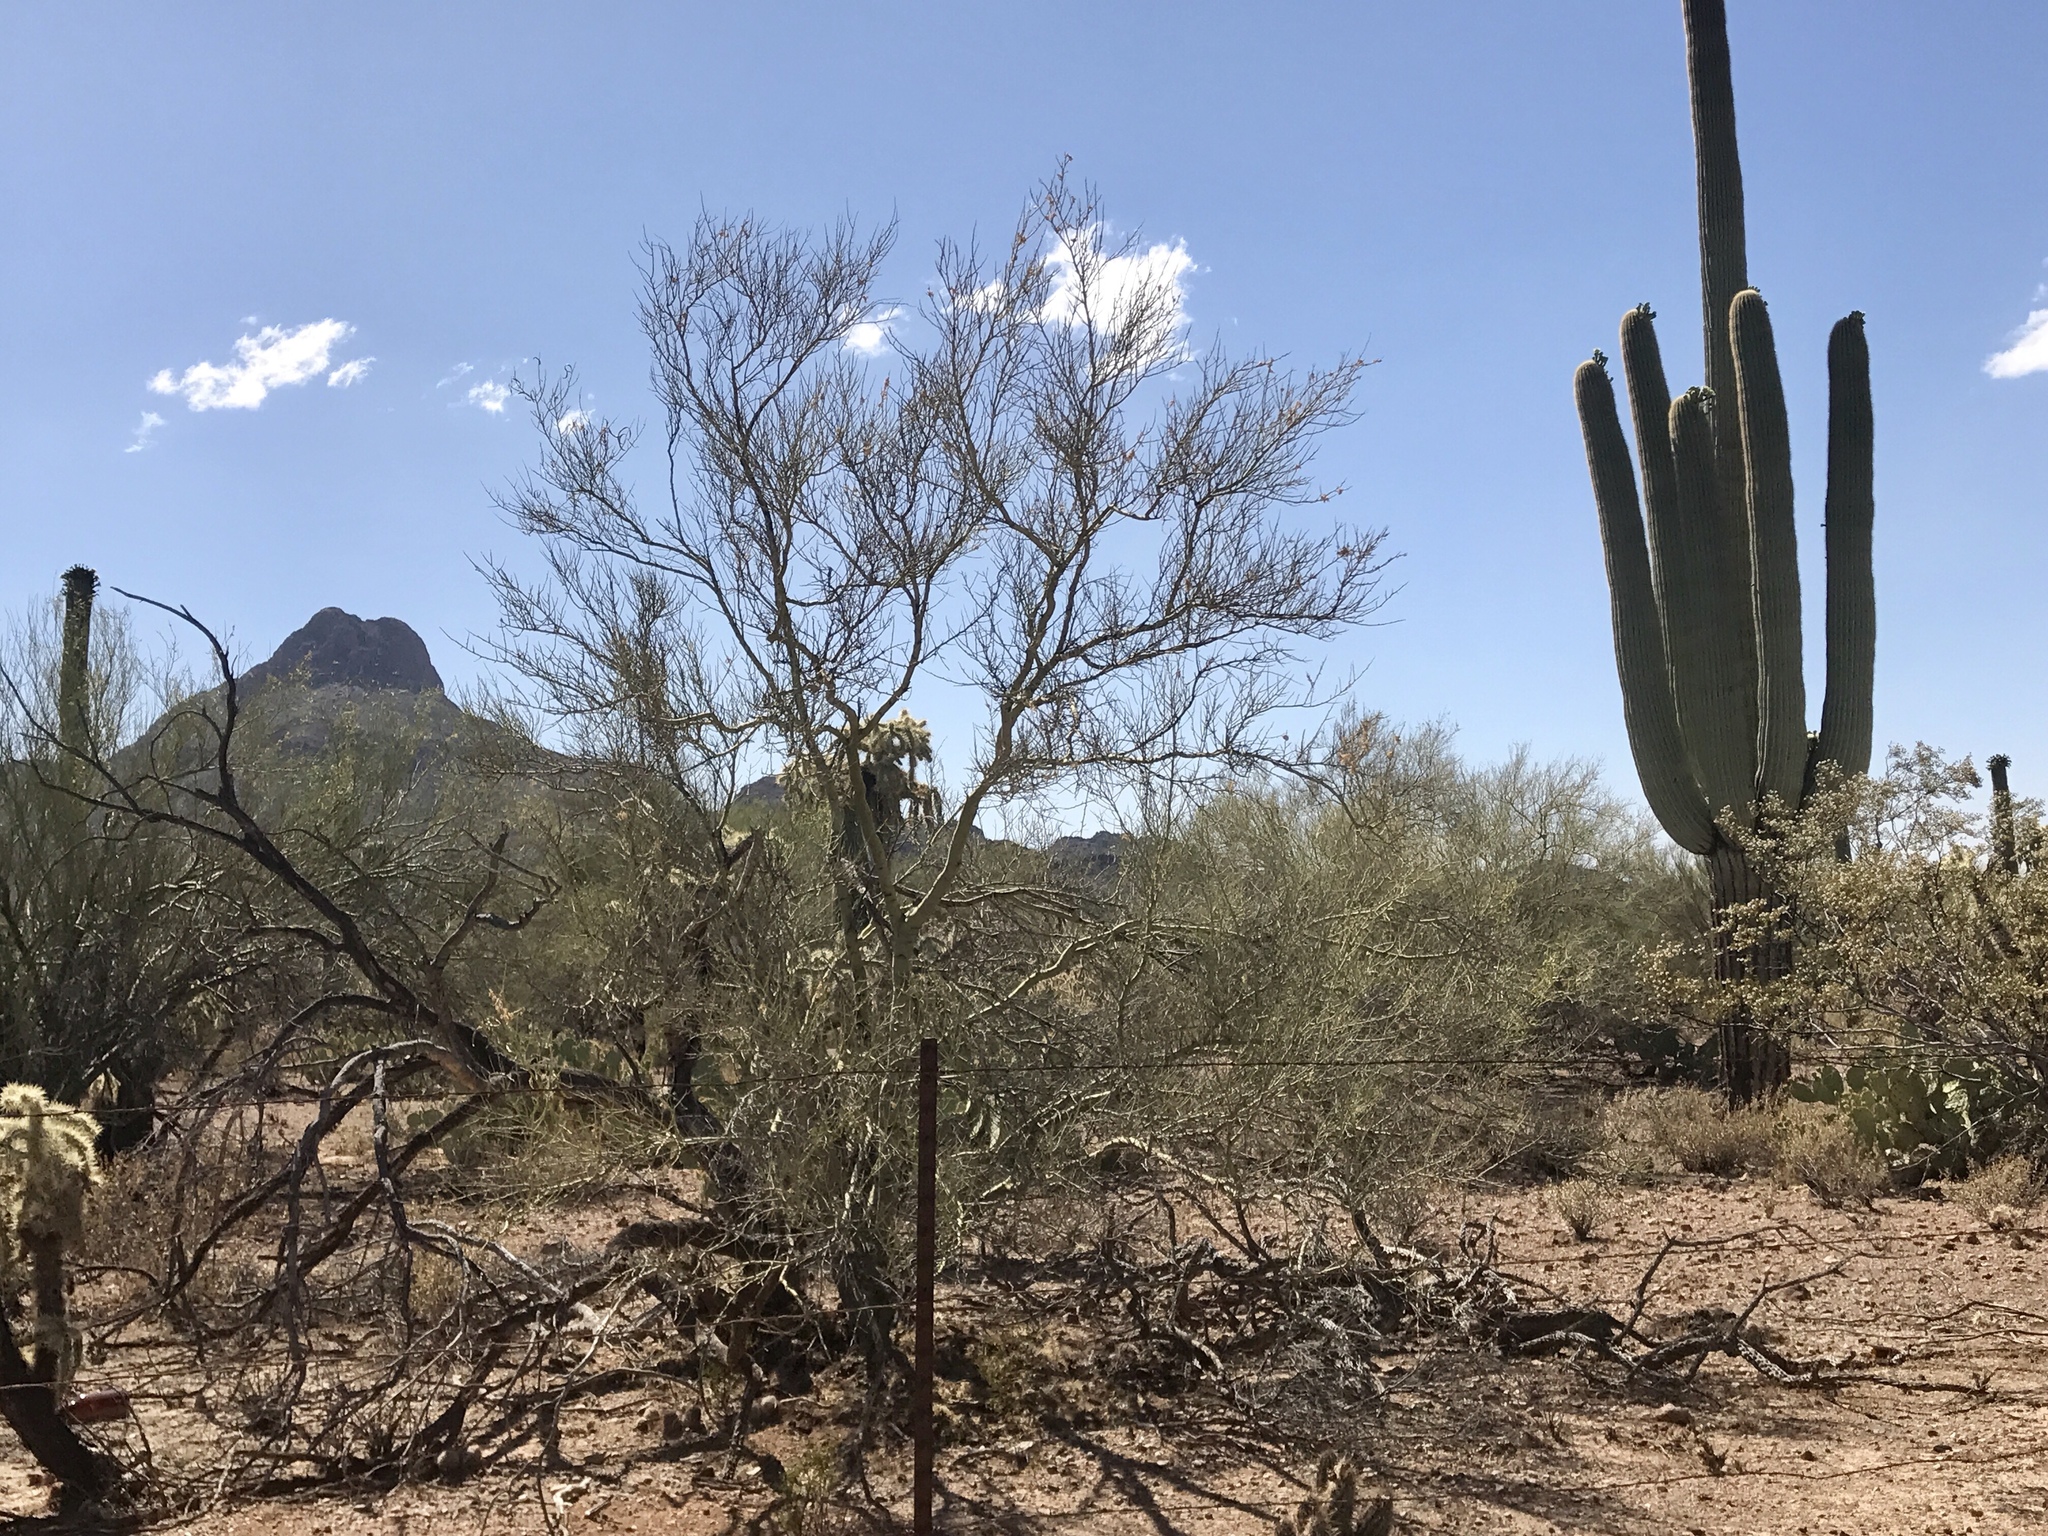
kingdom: Plantae
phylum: Tracheophyta
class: Magnoliopsida
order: Fabales
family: Fabaceae
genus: Parkinsonia
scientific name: Parkinsonia microphylla
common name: Yellow paloverde
